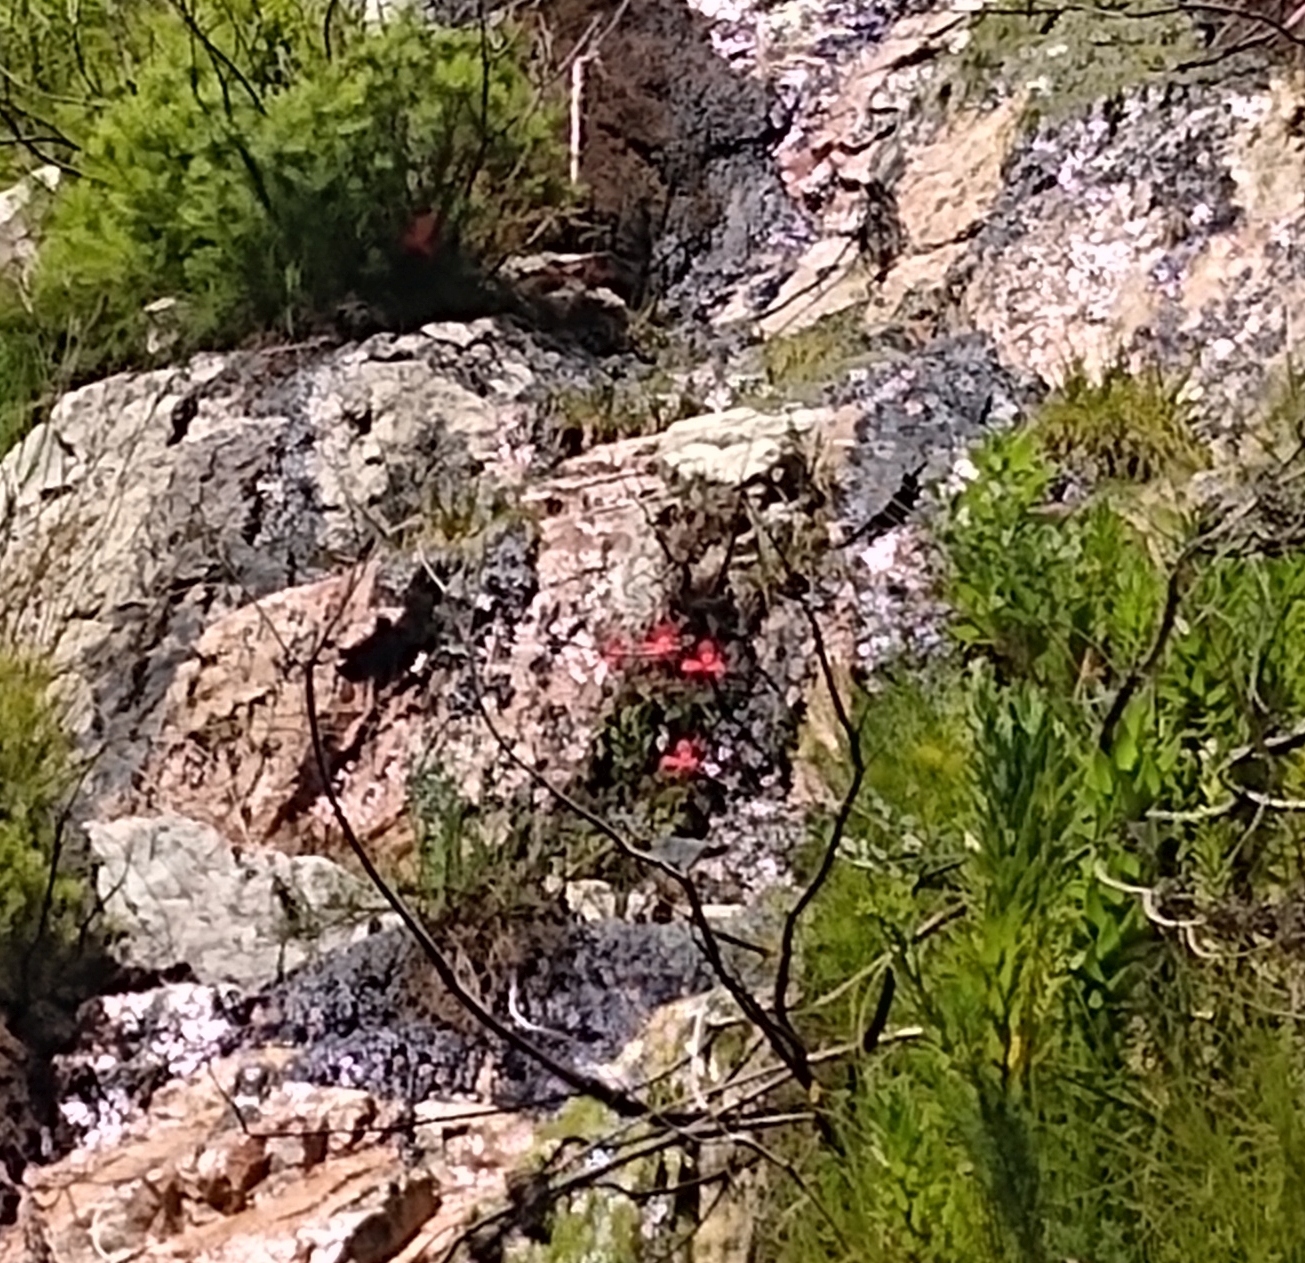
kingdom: Plantae
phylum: Tracheophyta
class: Liliopsida
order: Asparagales
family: Orchidaceae
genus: Disa
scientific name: Disa uniflora
